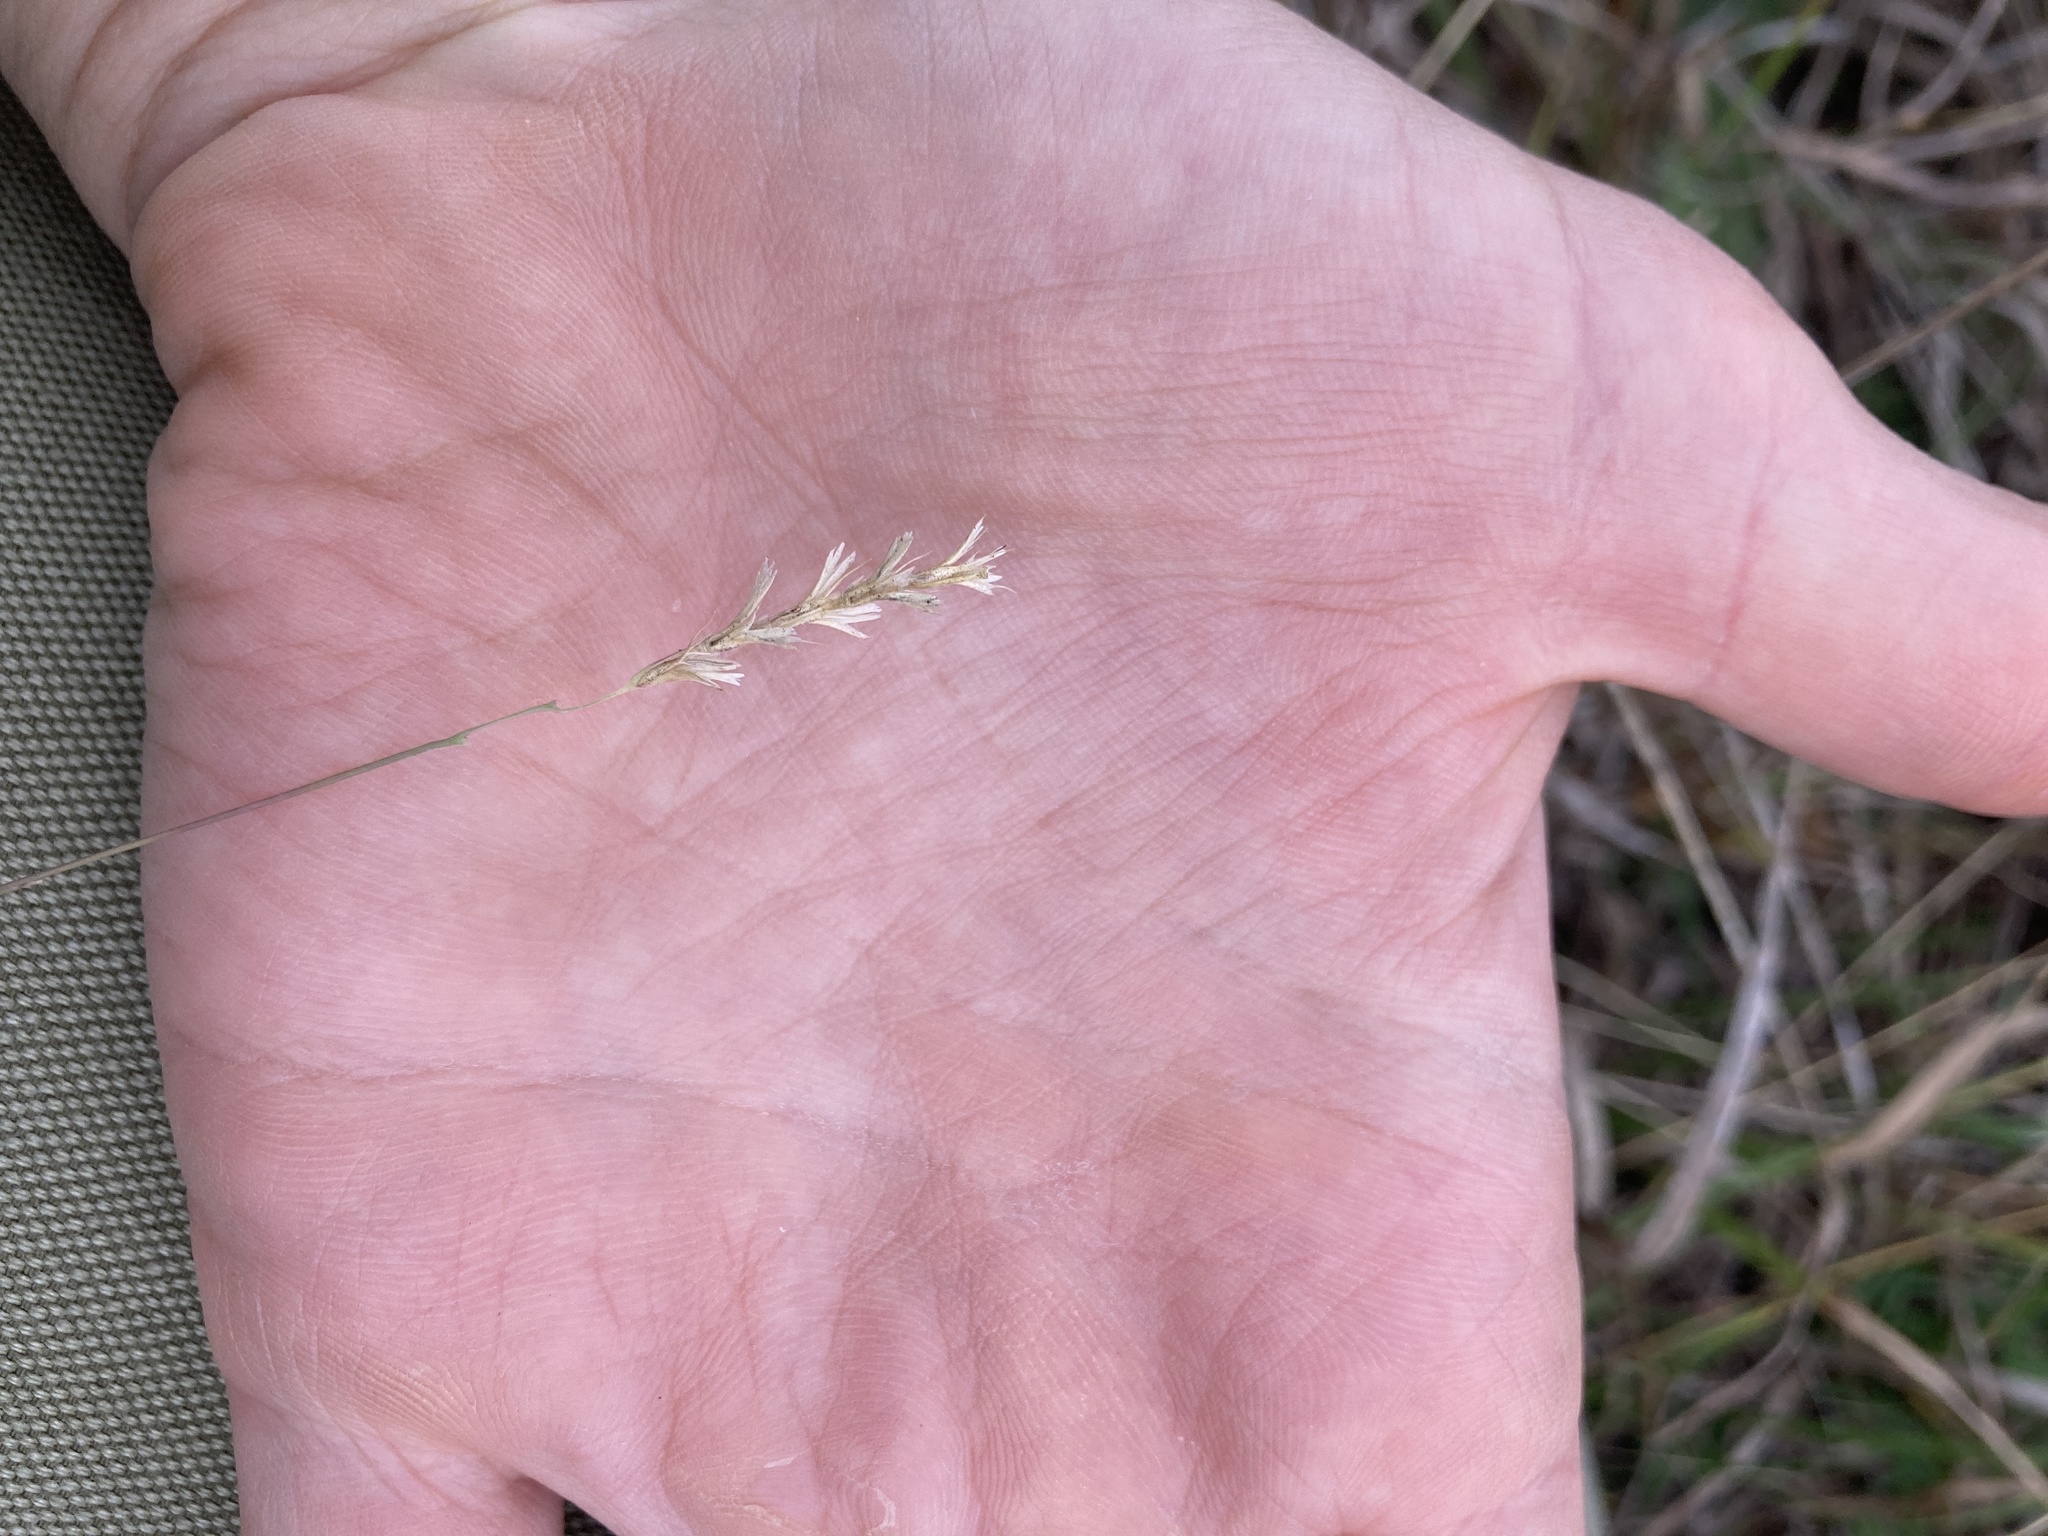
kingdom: Plantae
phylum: Tracheophyta
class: Liliopsida
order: Poales
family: Poaceae
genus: Hilaria
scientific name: Hilaria belangeri
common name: Curly-mesquite
